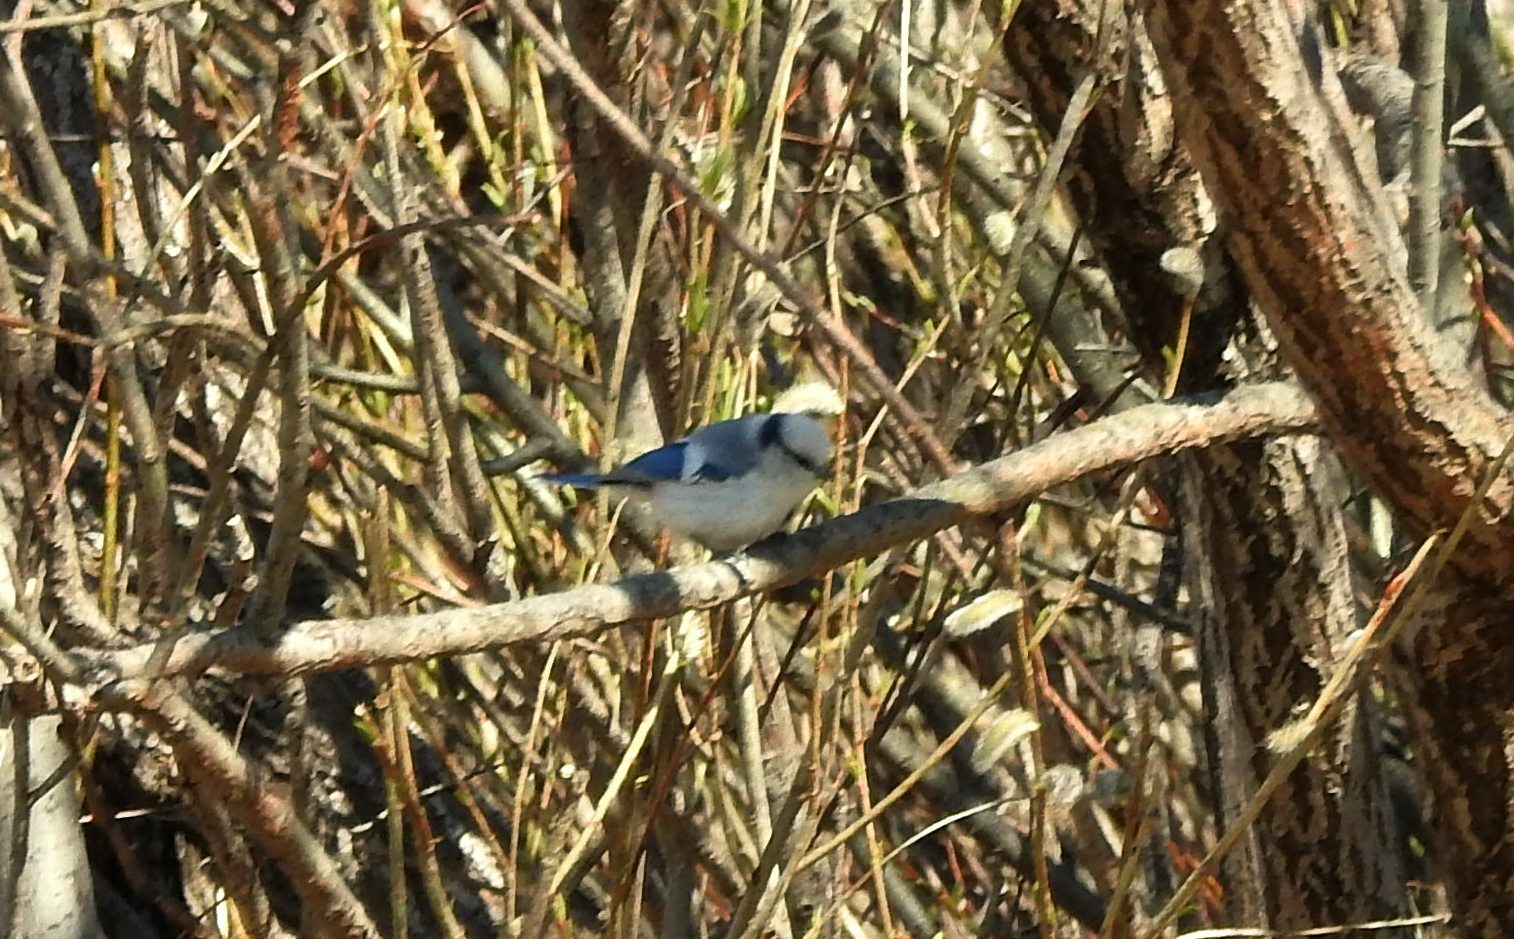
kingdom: Animalia
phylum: Chordata
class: Aves
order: Passeriformes
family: Paridae
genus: Cyanistes
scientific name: Cyanistes cyanus
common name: Azure tit
